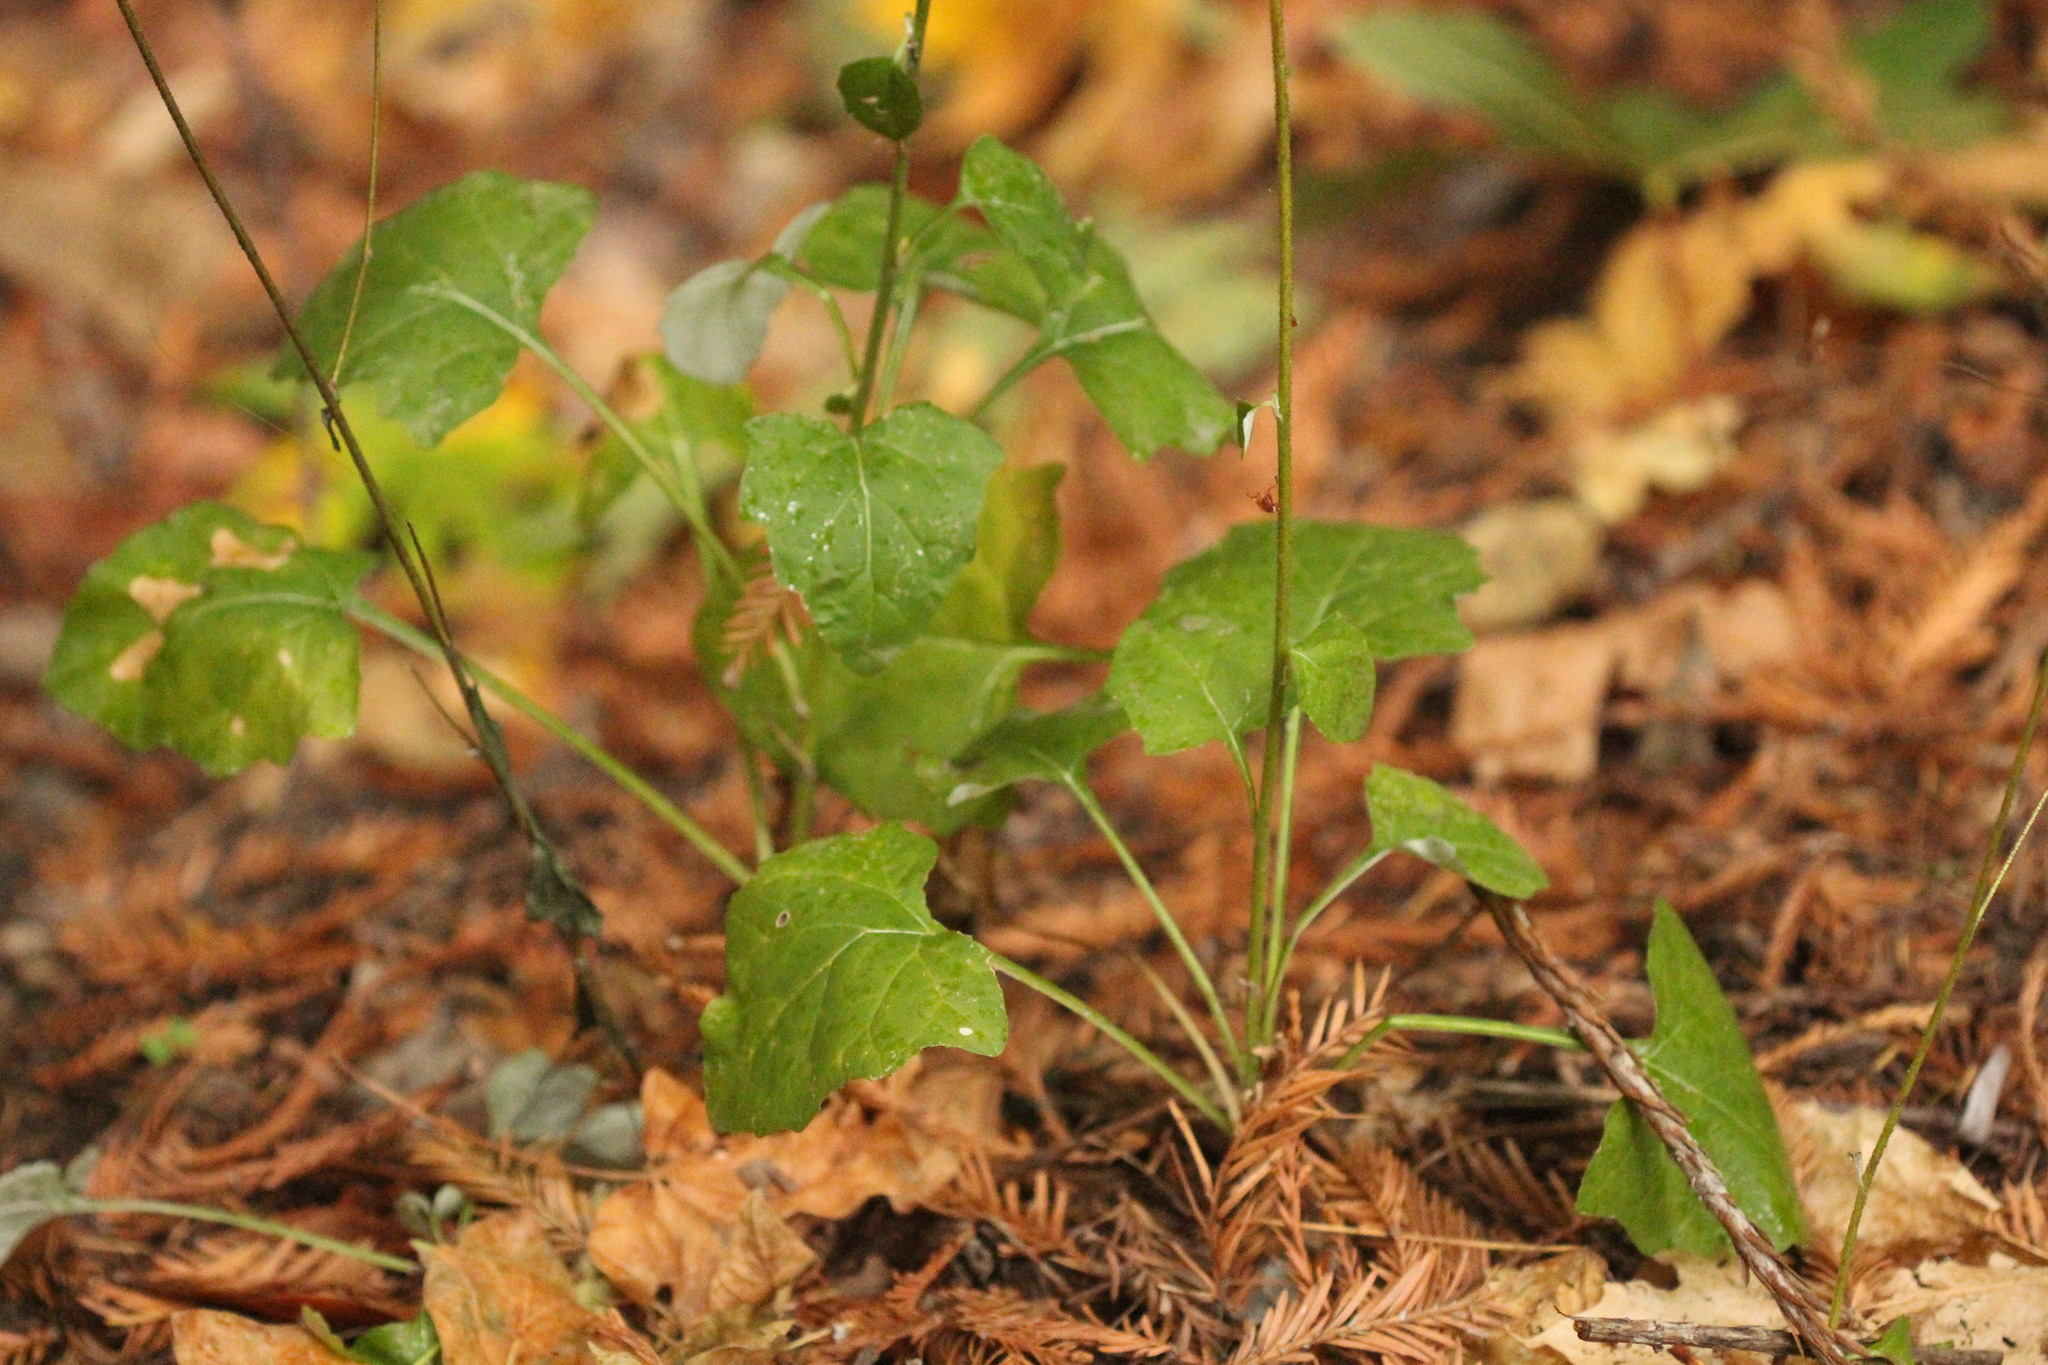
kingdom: Plantae
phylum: Tracheophyta
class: Magnoliopsida
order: Asterales
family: Asteraceae
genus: Adenocaulon
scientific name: Adenocaulon bicolor
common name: Trailplant
